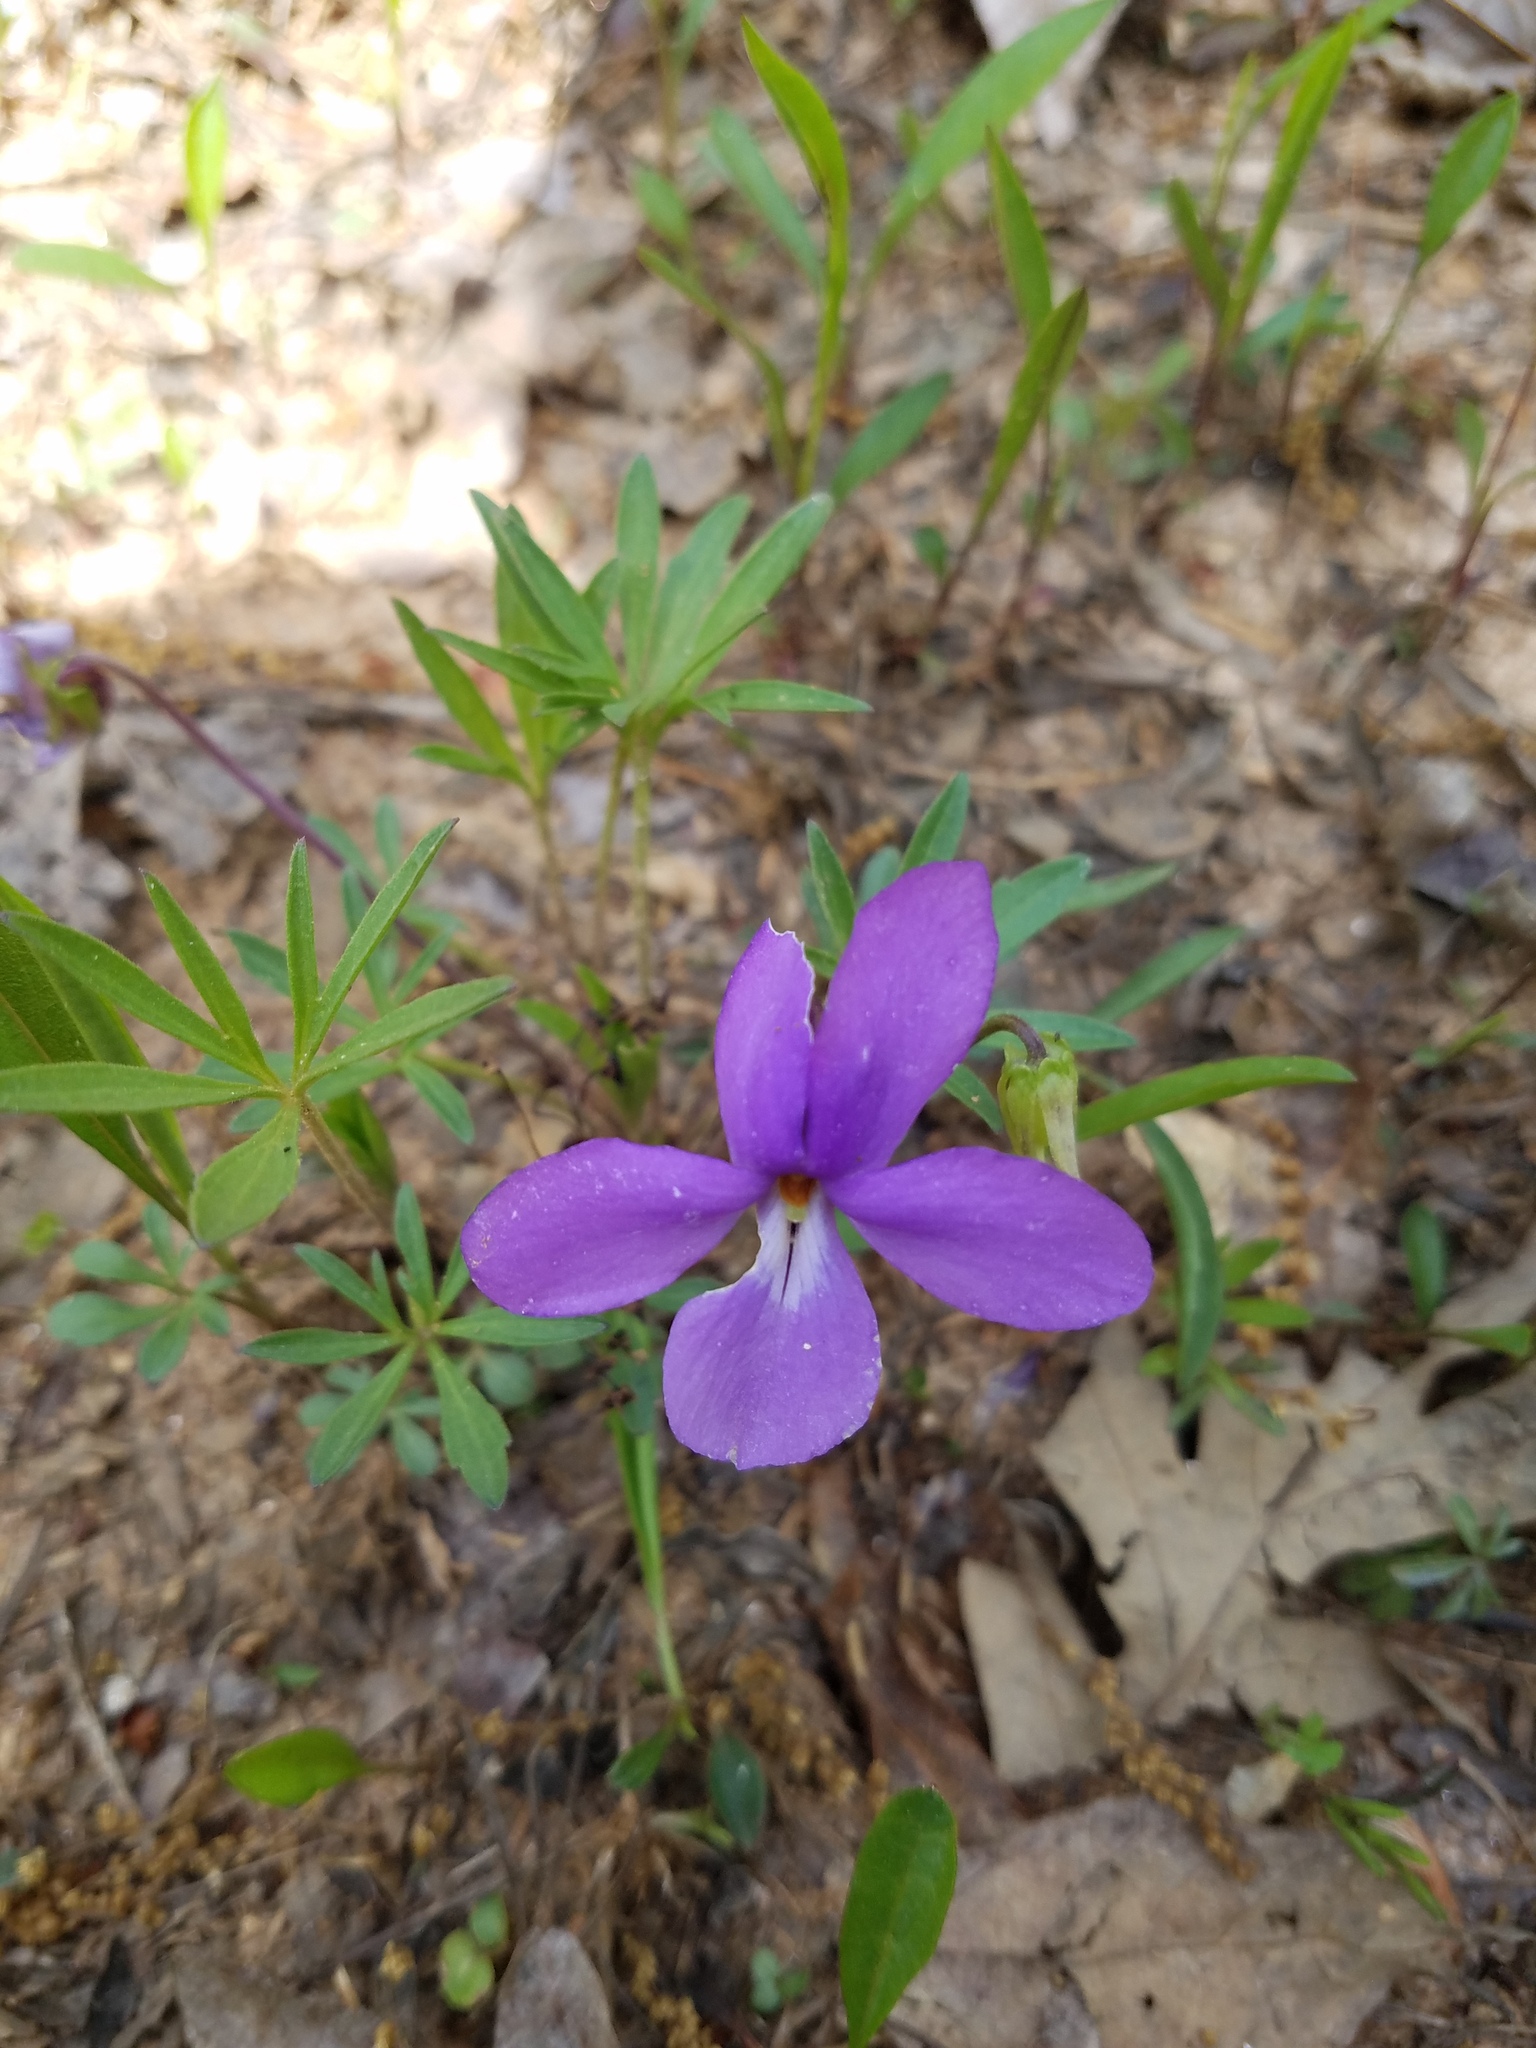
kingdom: Plantae
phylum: Tracheophyta
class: Magnoliopsida
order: Malpighiales
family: Violaceae
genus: Viola
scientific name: Viola pedata
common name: Pansy violet
